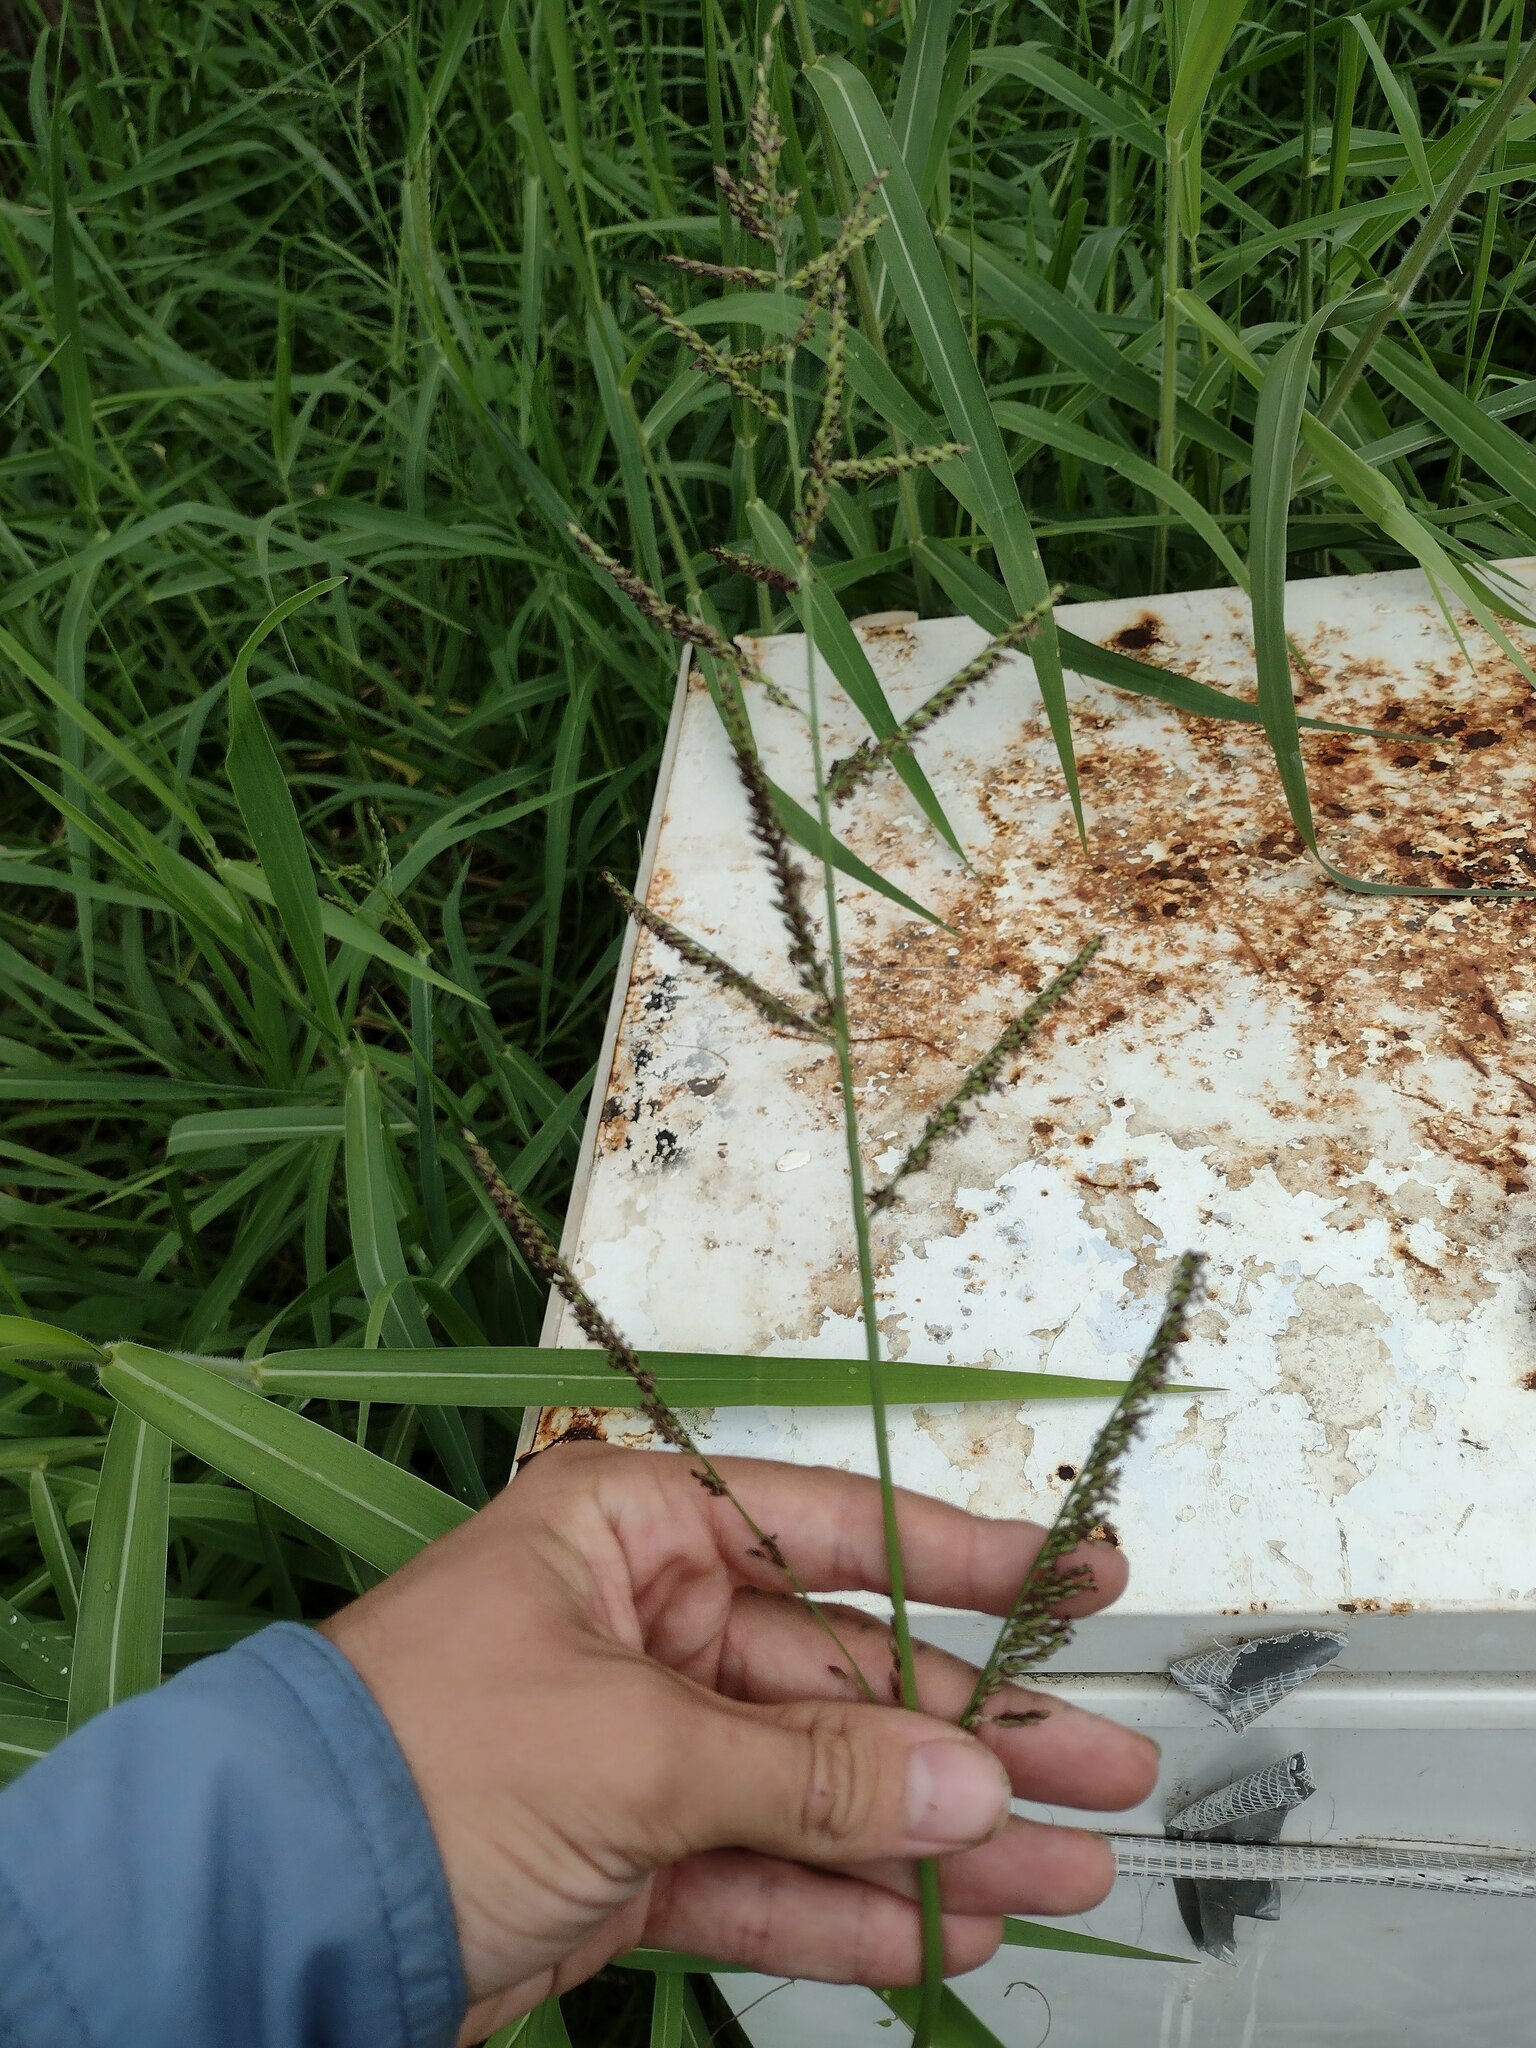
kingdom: Plantae
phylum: Tracheophyta
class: Liliopsida
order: Poales
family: Poaceae
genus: Urochloa
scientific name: Urochloa mutica
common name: Para grass
